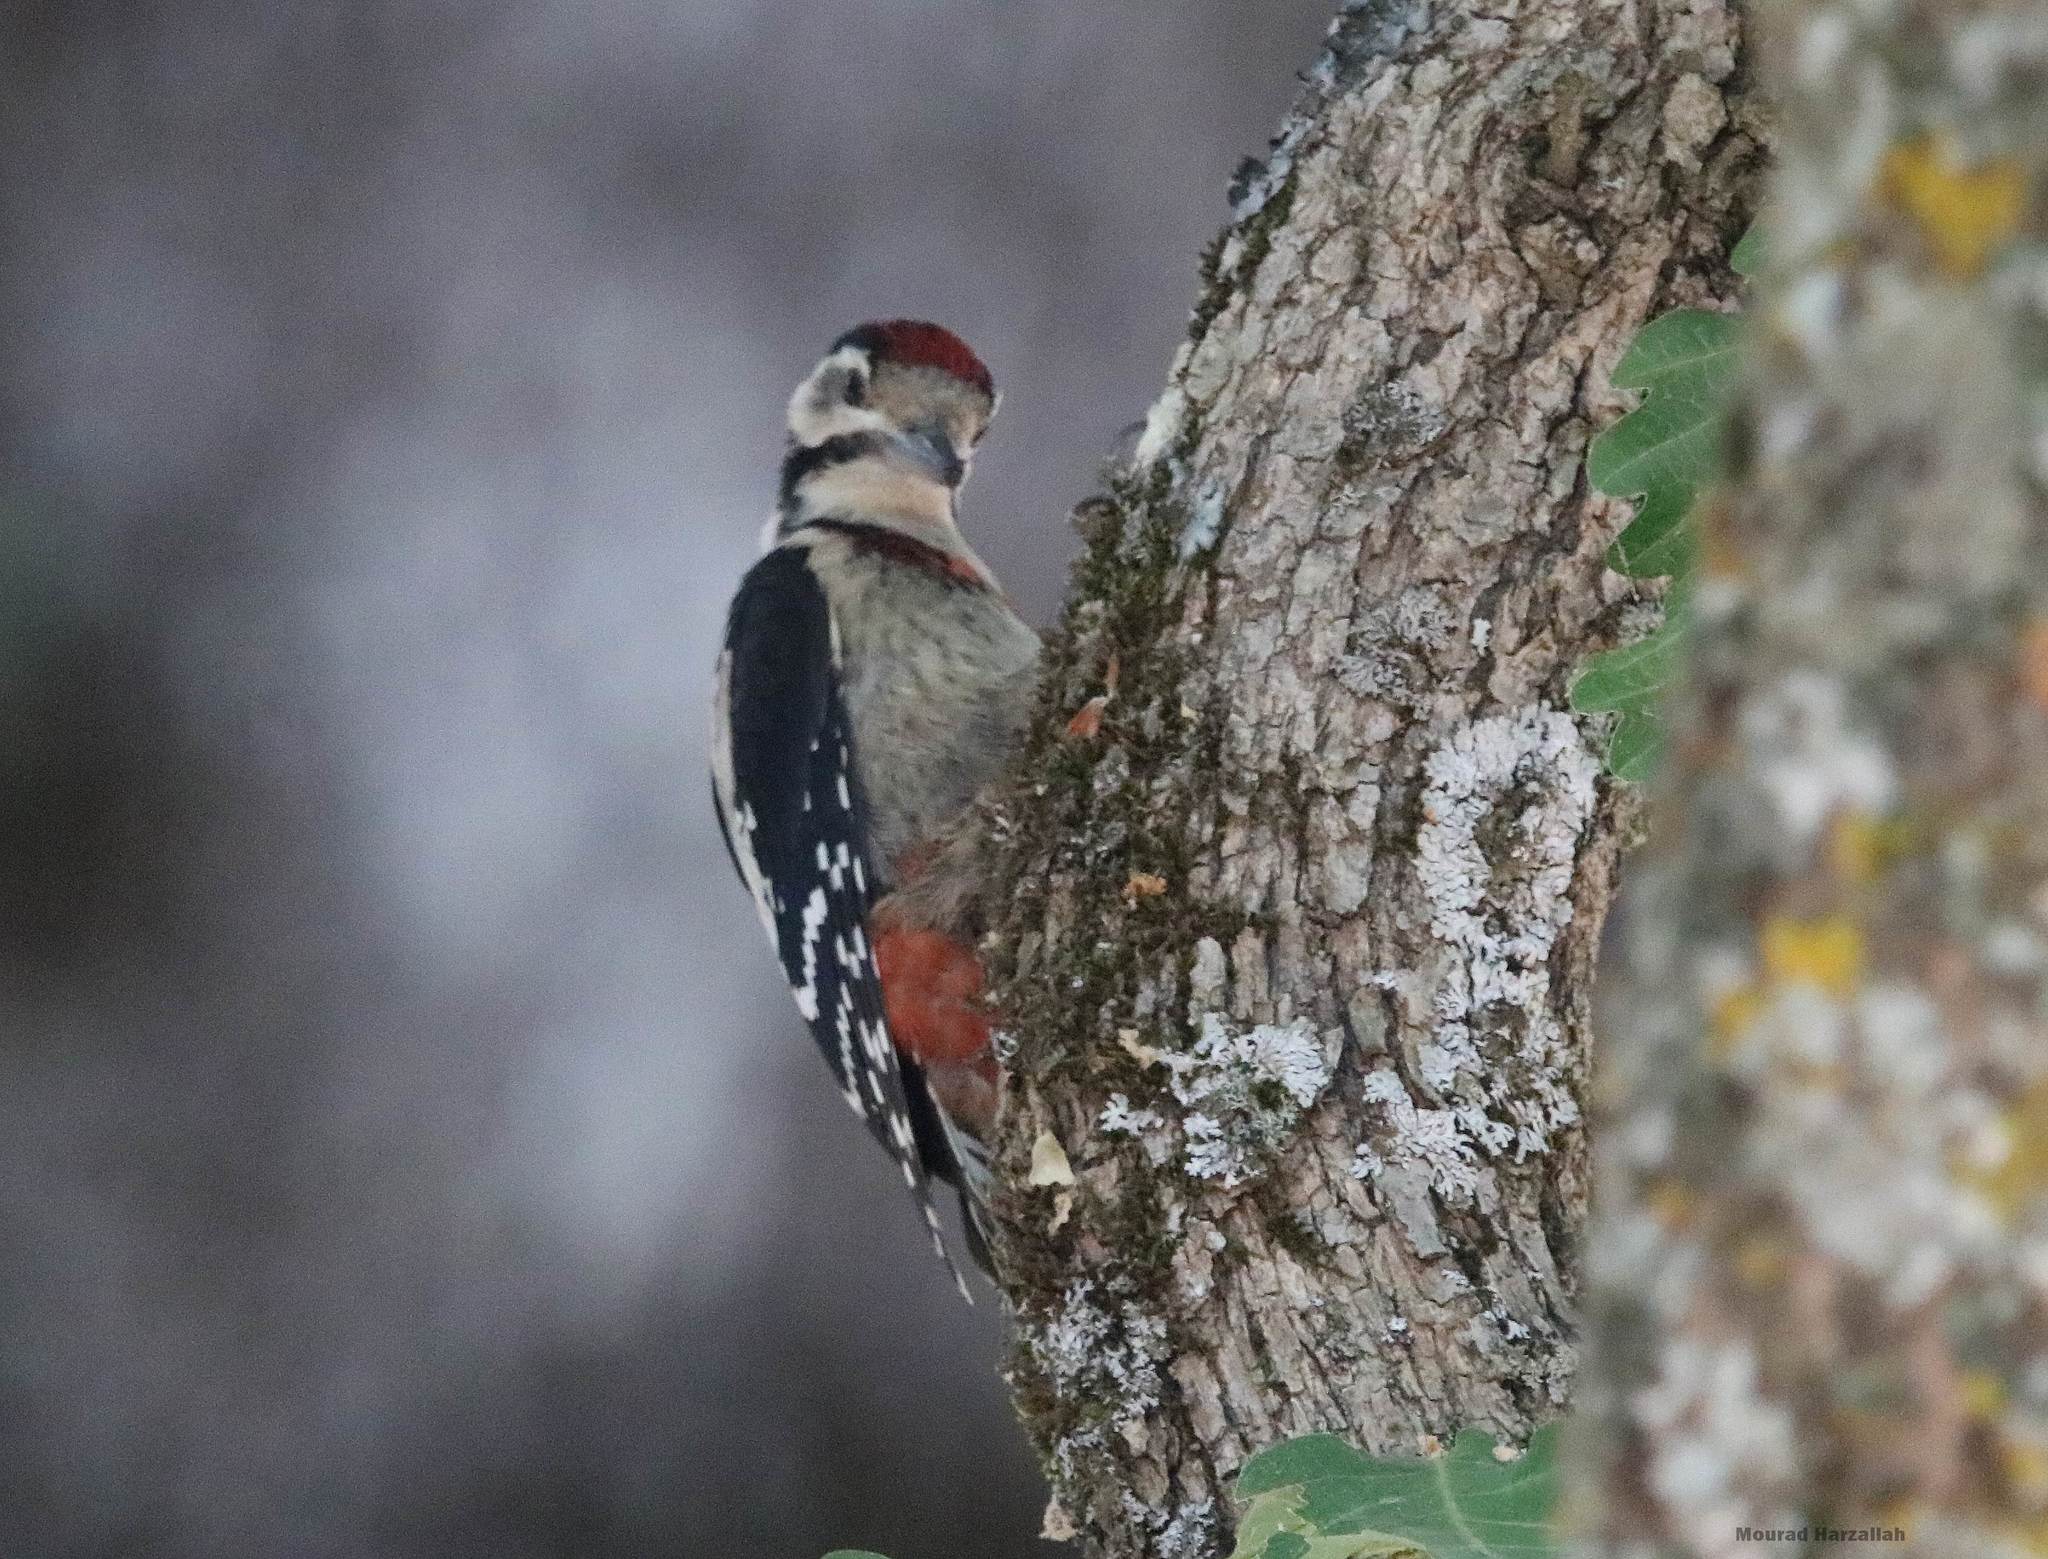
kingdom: Animalia
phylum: Chordata
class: Aves
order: Piciformes
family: Picidae
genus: Dendrocopos
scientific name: Dendrocopos major
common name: Great spotted woodpecker
